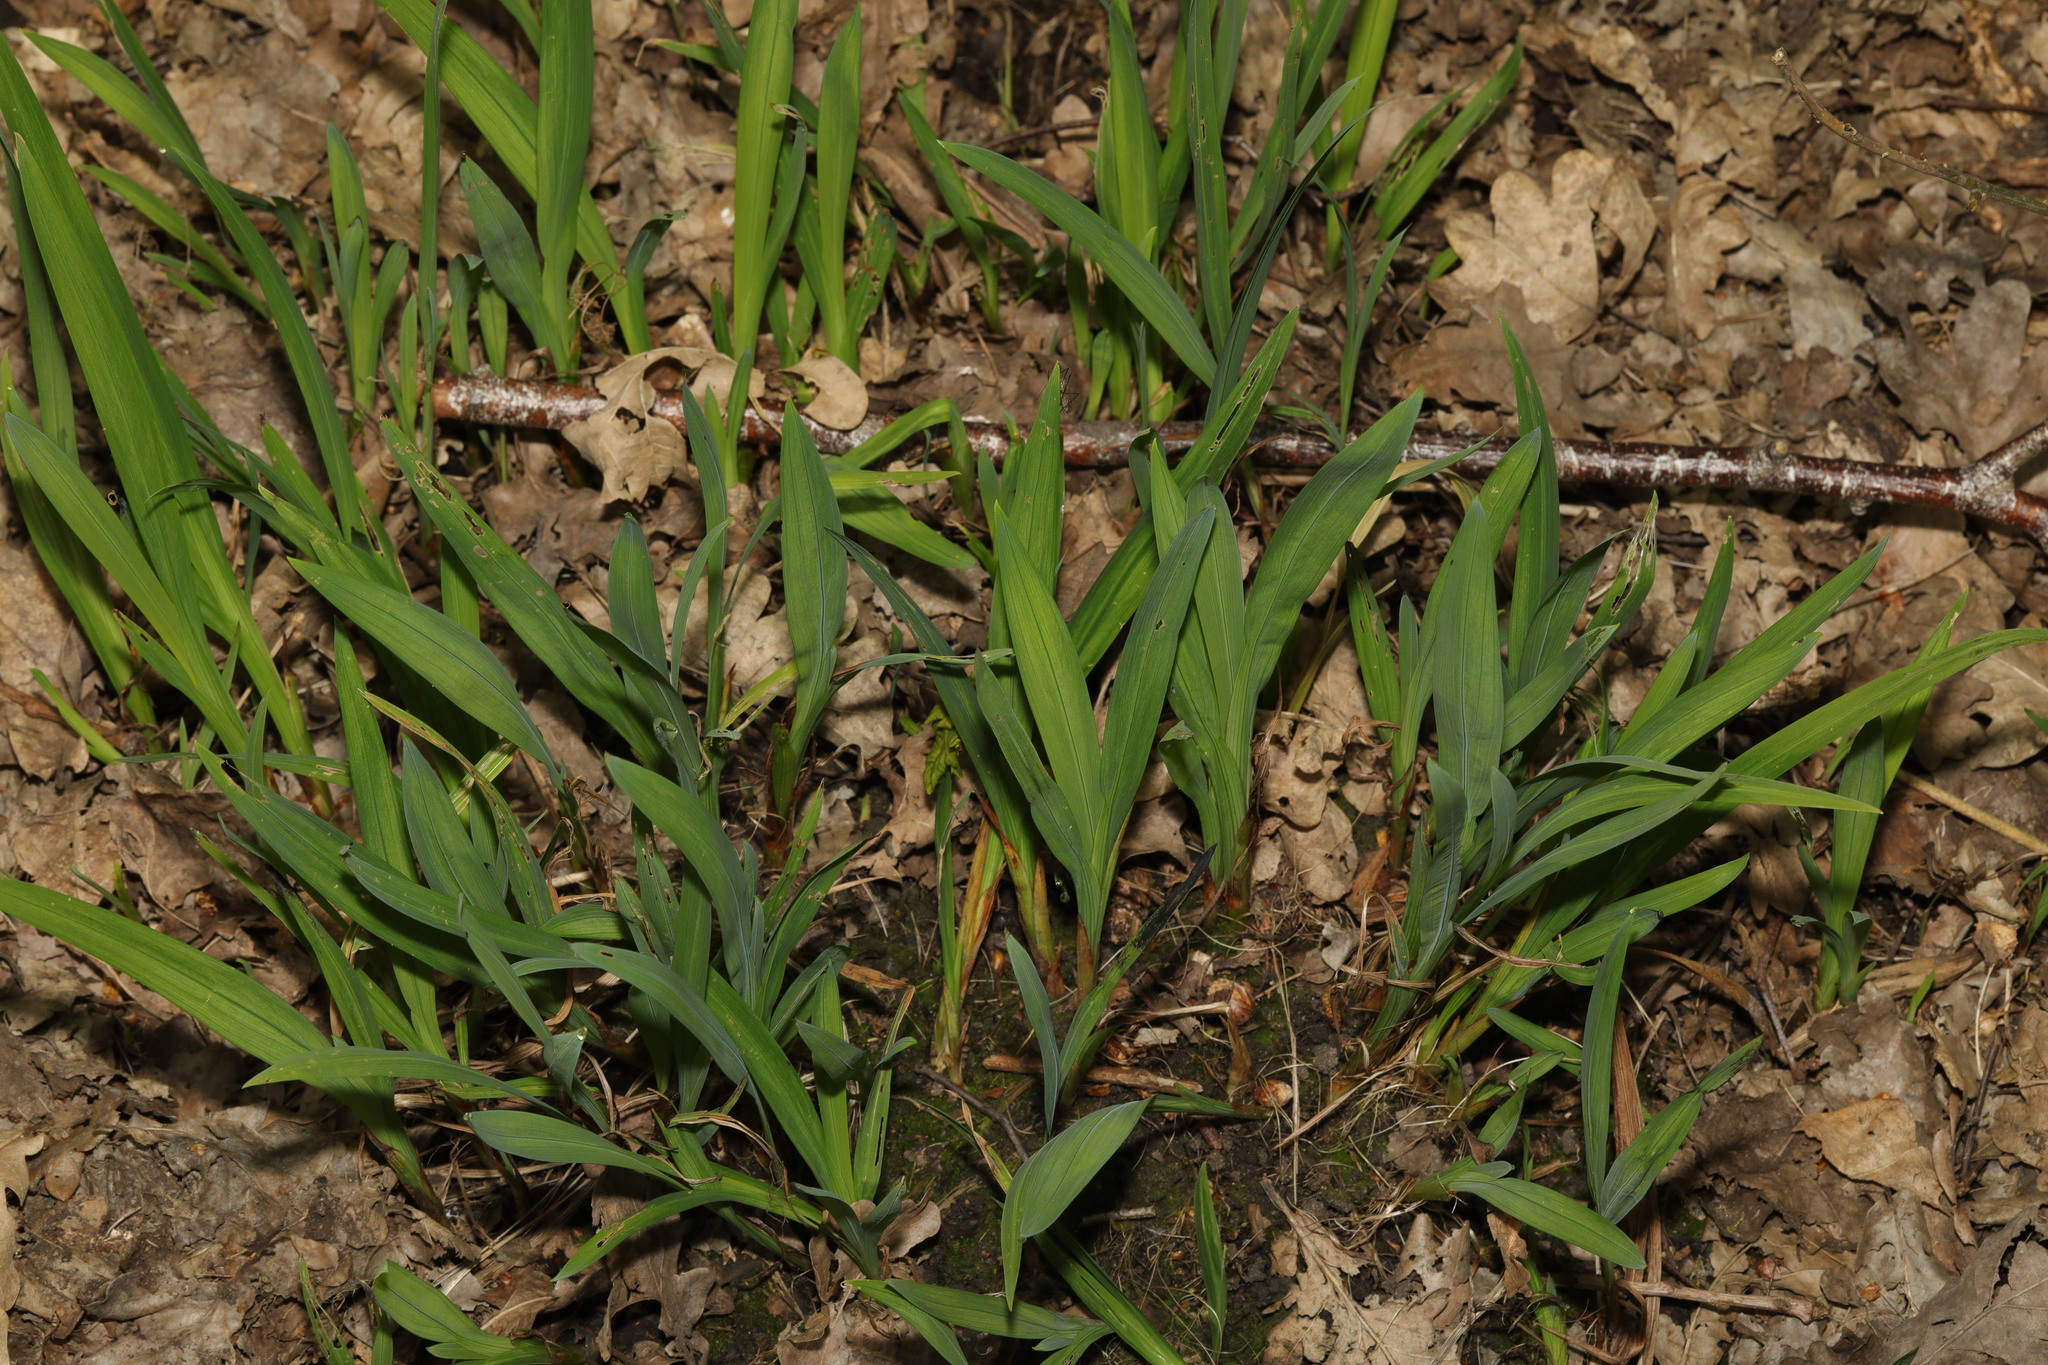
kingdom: Plantae
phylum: Tracheophyta
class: Liliopsida
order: Poales
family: Poaceae
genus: Milium
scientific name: Milium effusum
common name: Wood millet
